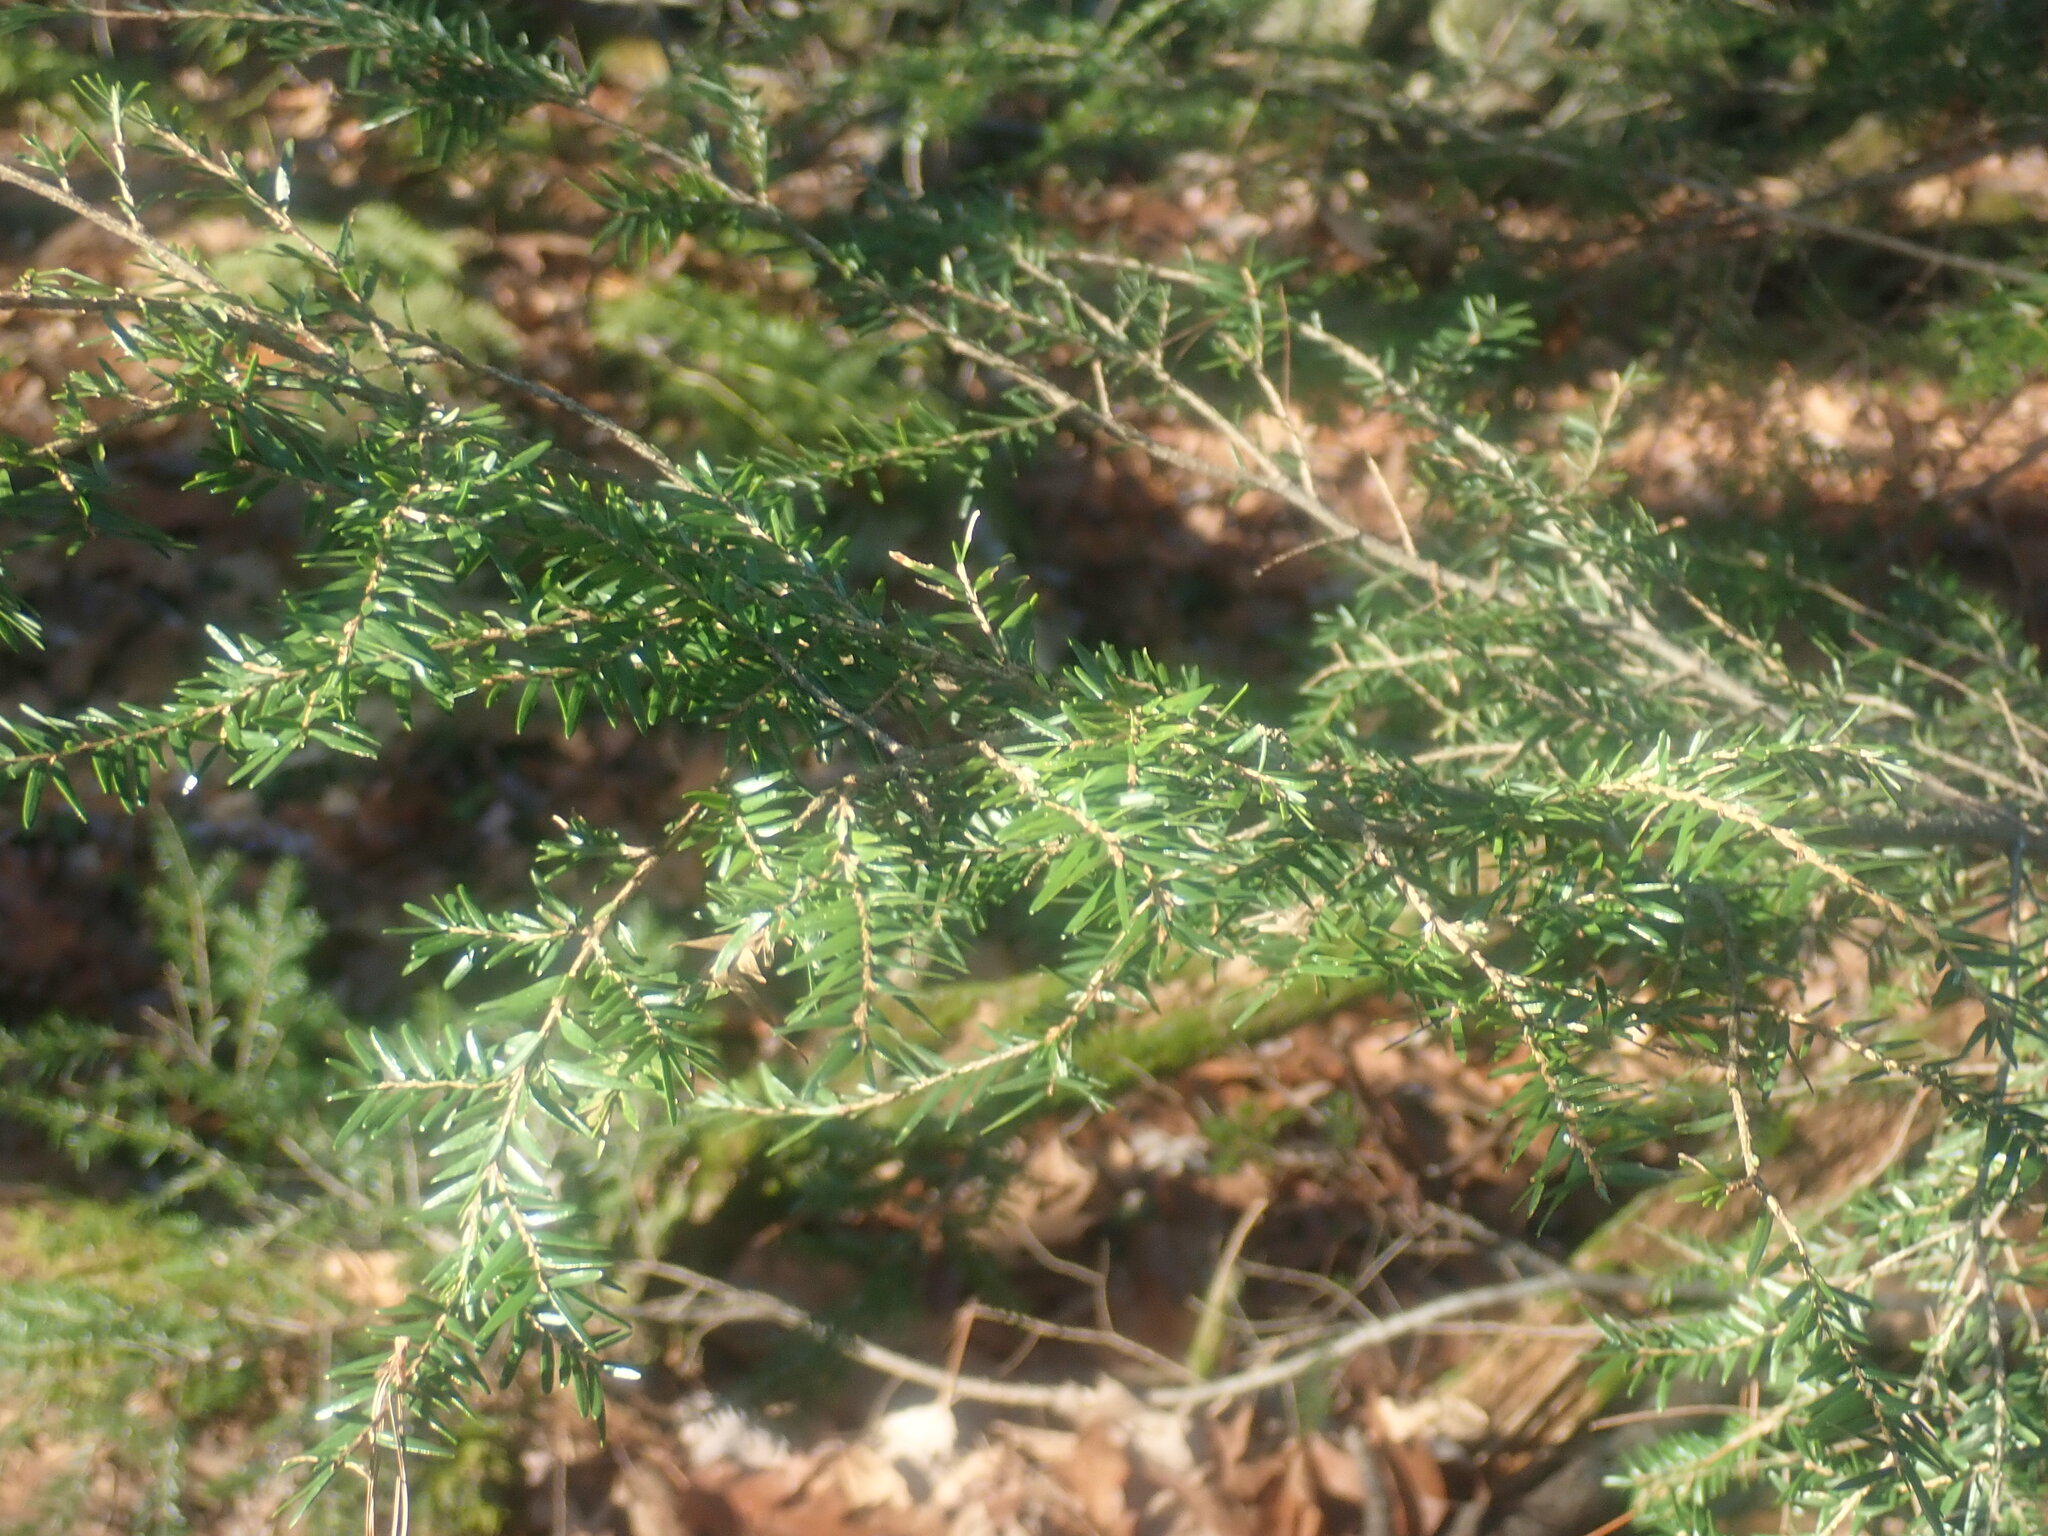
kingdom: Plantae
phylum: Tracheophyta
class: Pinopsida
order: Pinales
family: Pinaceae
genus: Tsuga
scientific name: Tsuga canadensis
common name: Eastern hemlock
